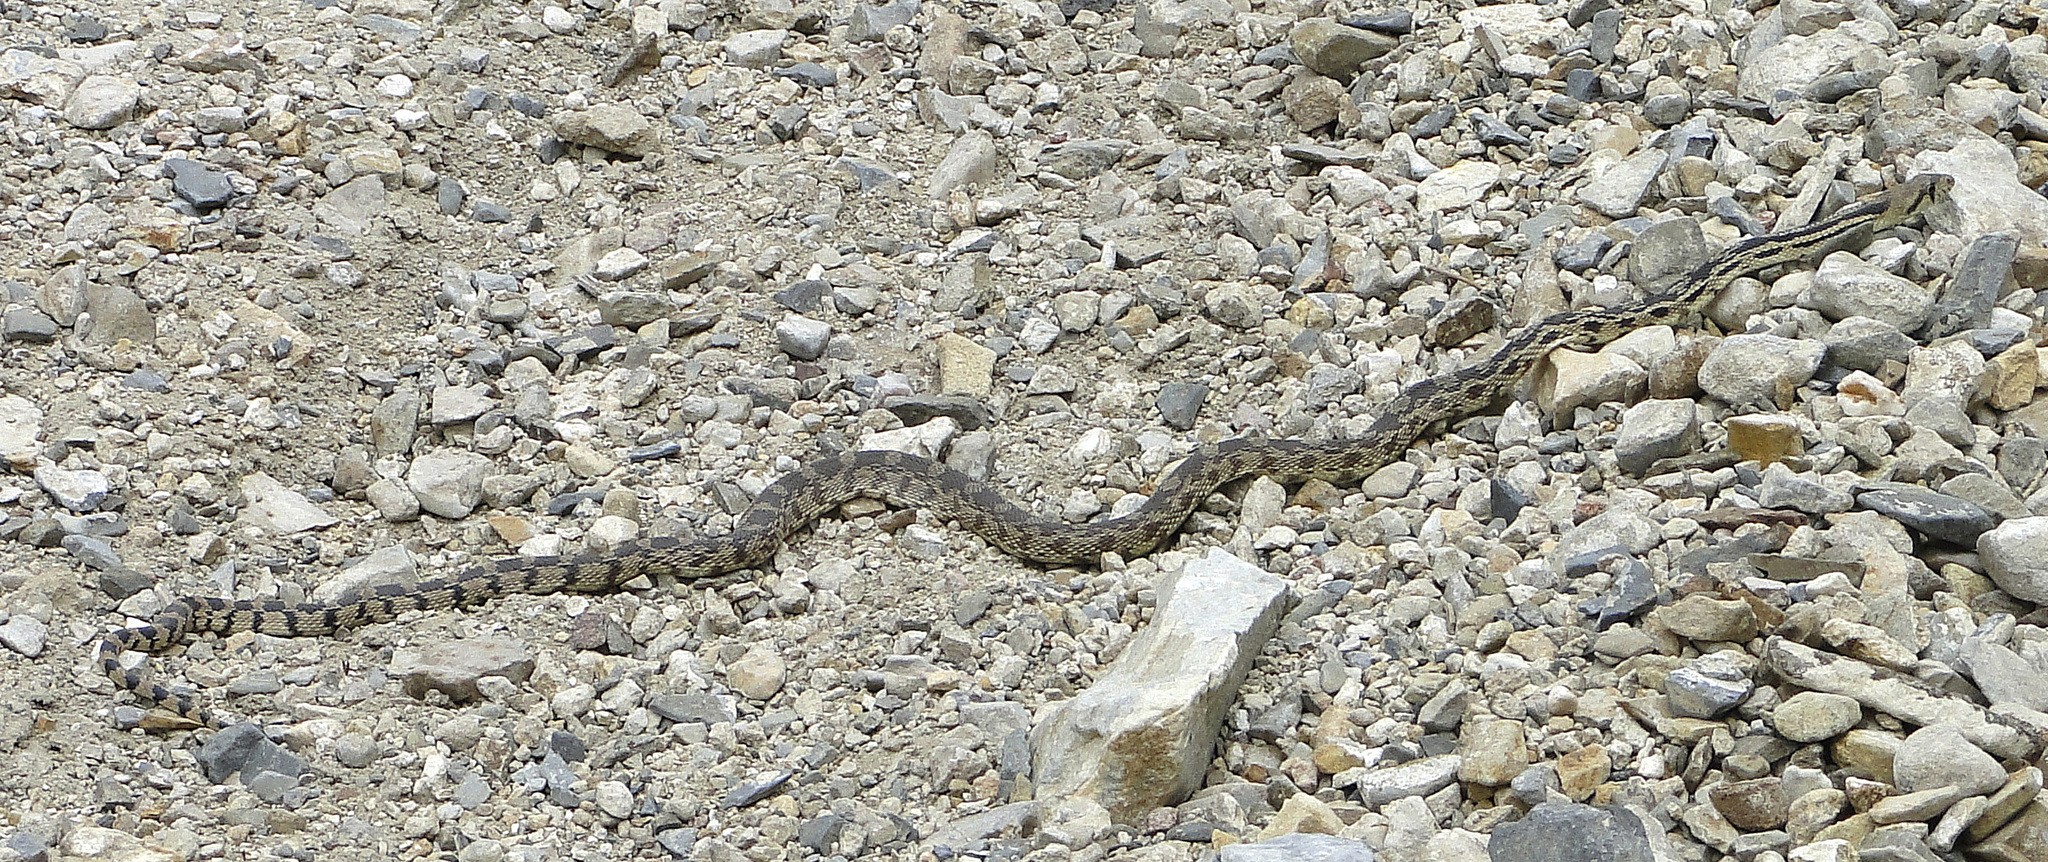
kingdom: Animalia
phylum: Chordata
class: Squamata
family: Colubridae
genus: Pituophis
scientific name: Pituophis catenifer
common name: Gopher snake
